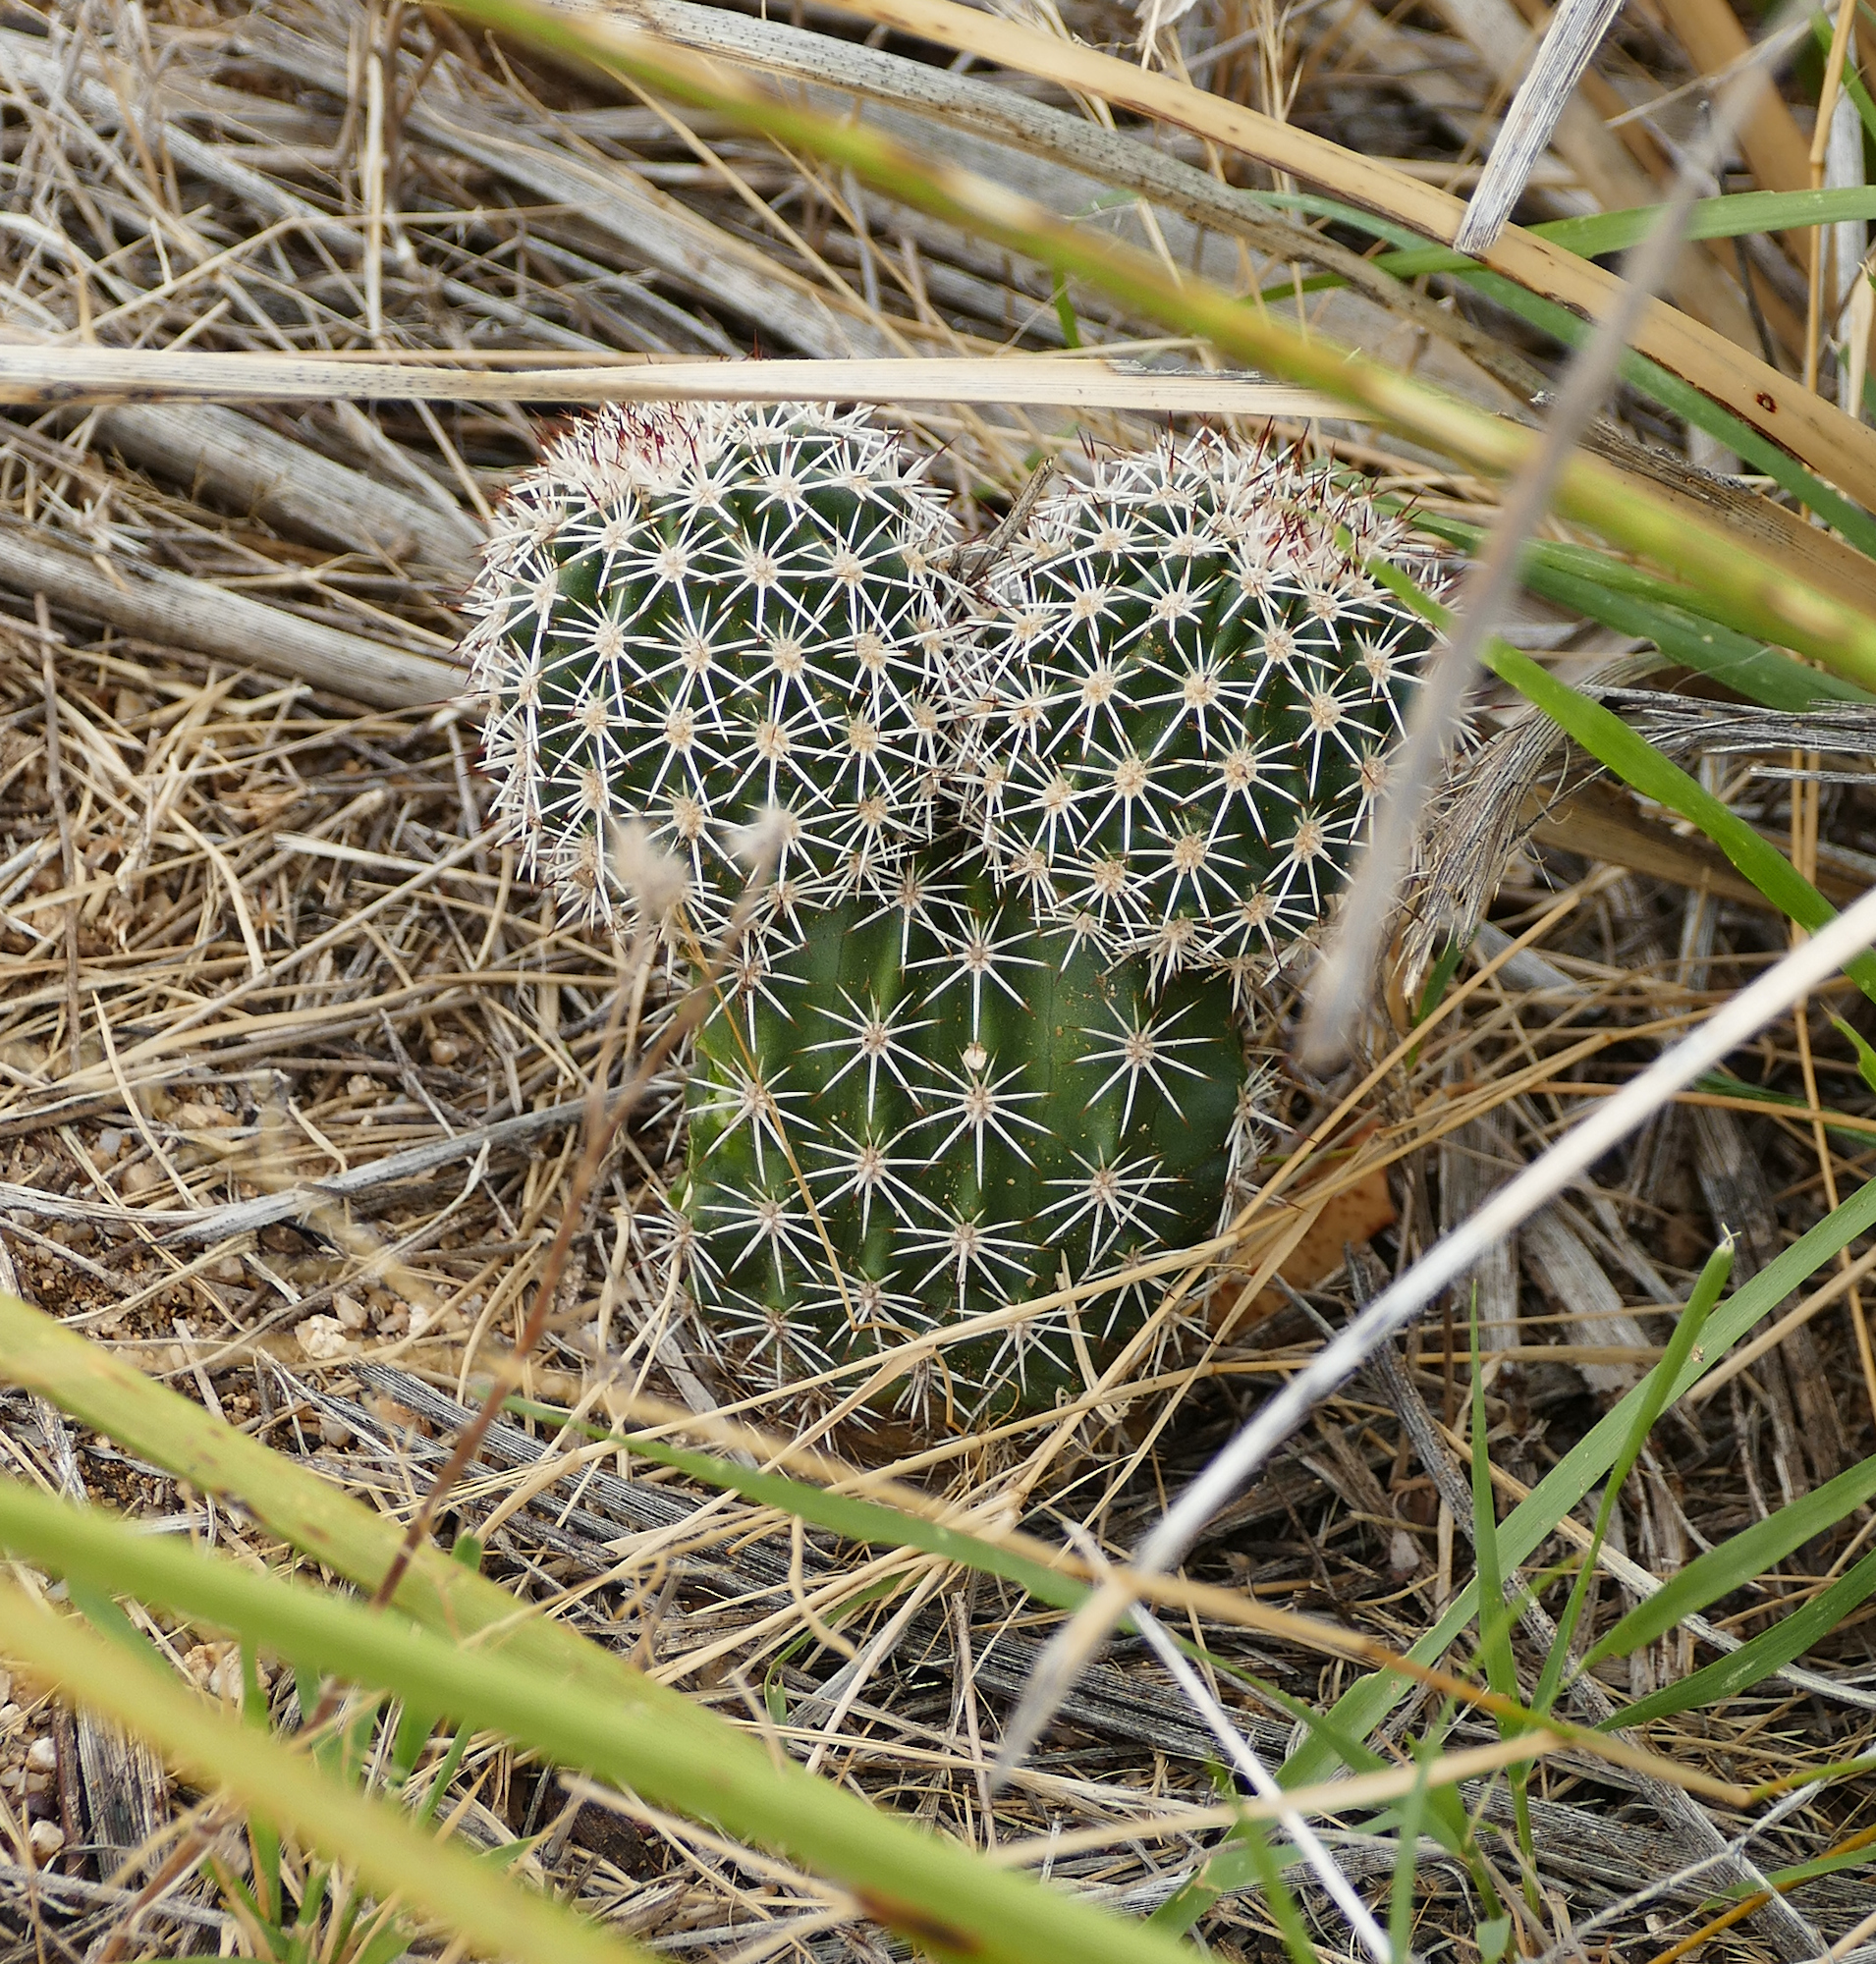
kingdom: Plantae
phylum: Tracheophyta
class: Magnoliopsida
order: Caryophyllales
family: Cactaceae
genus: Echinocereus
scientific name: Echinocereus bonkerae
